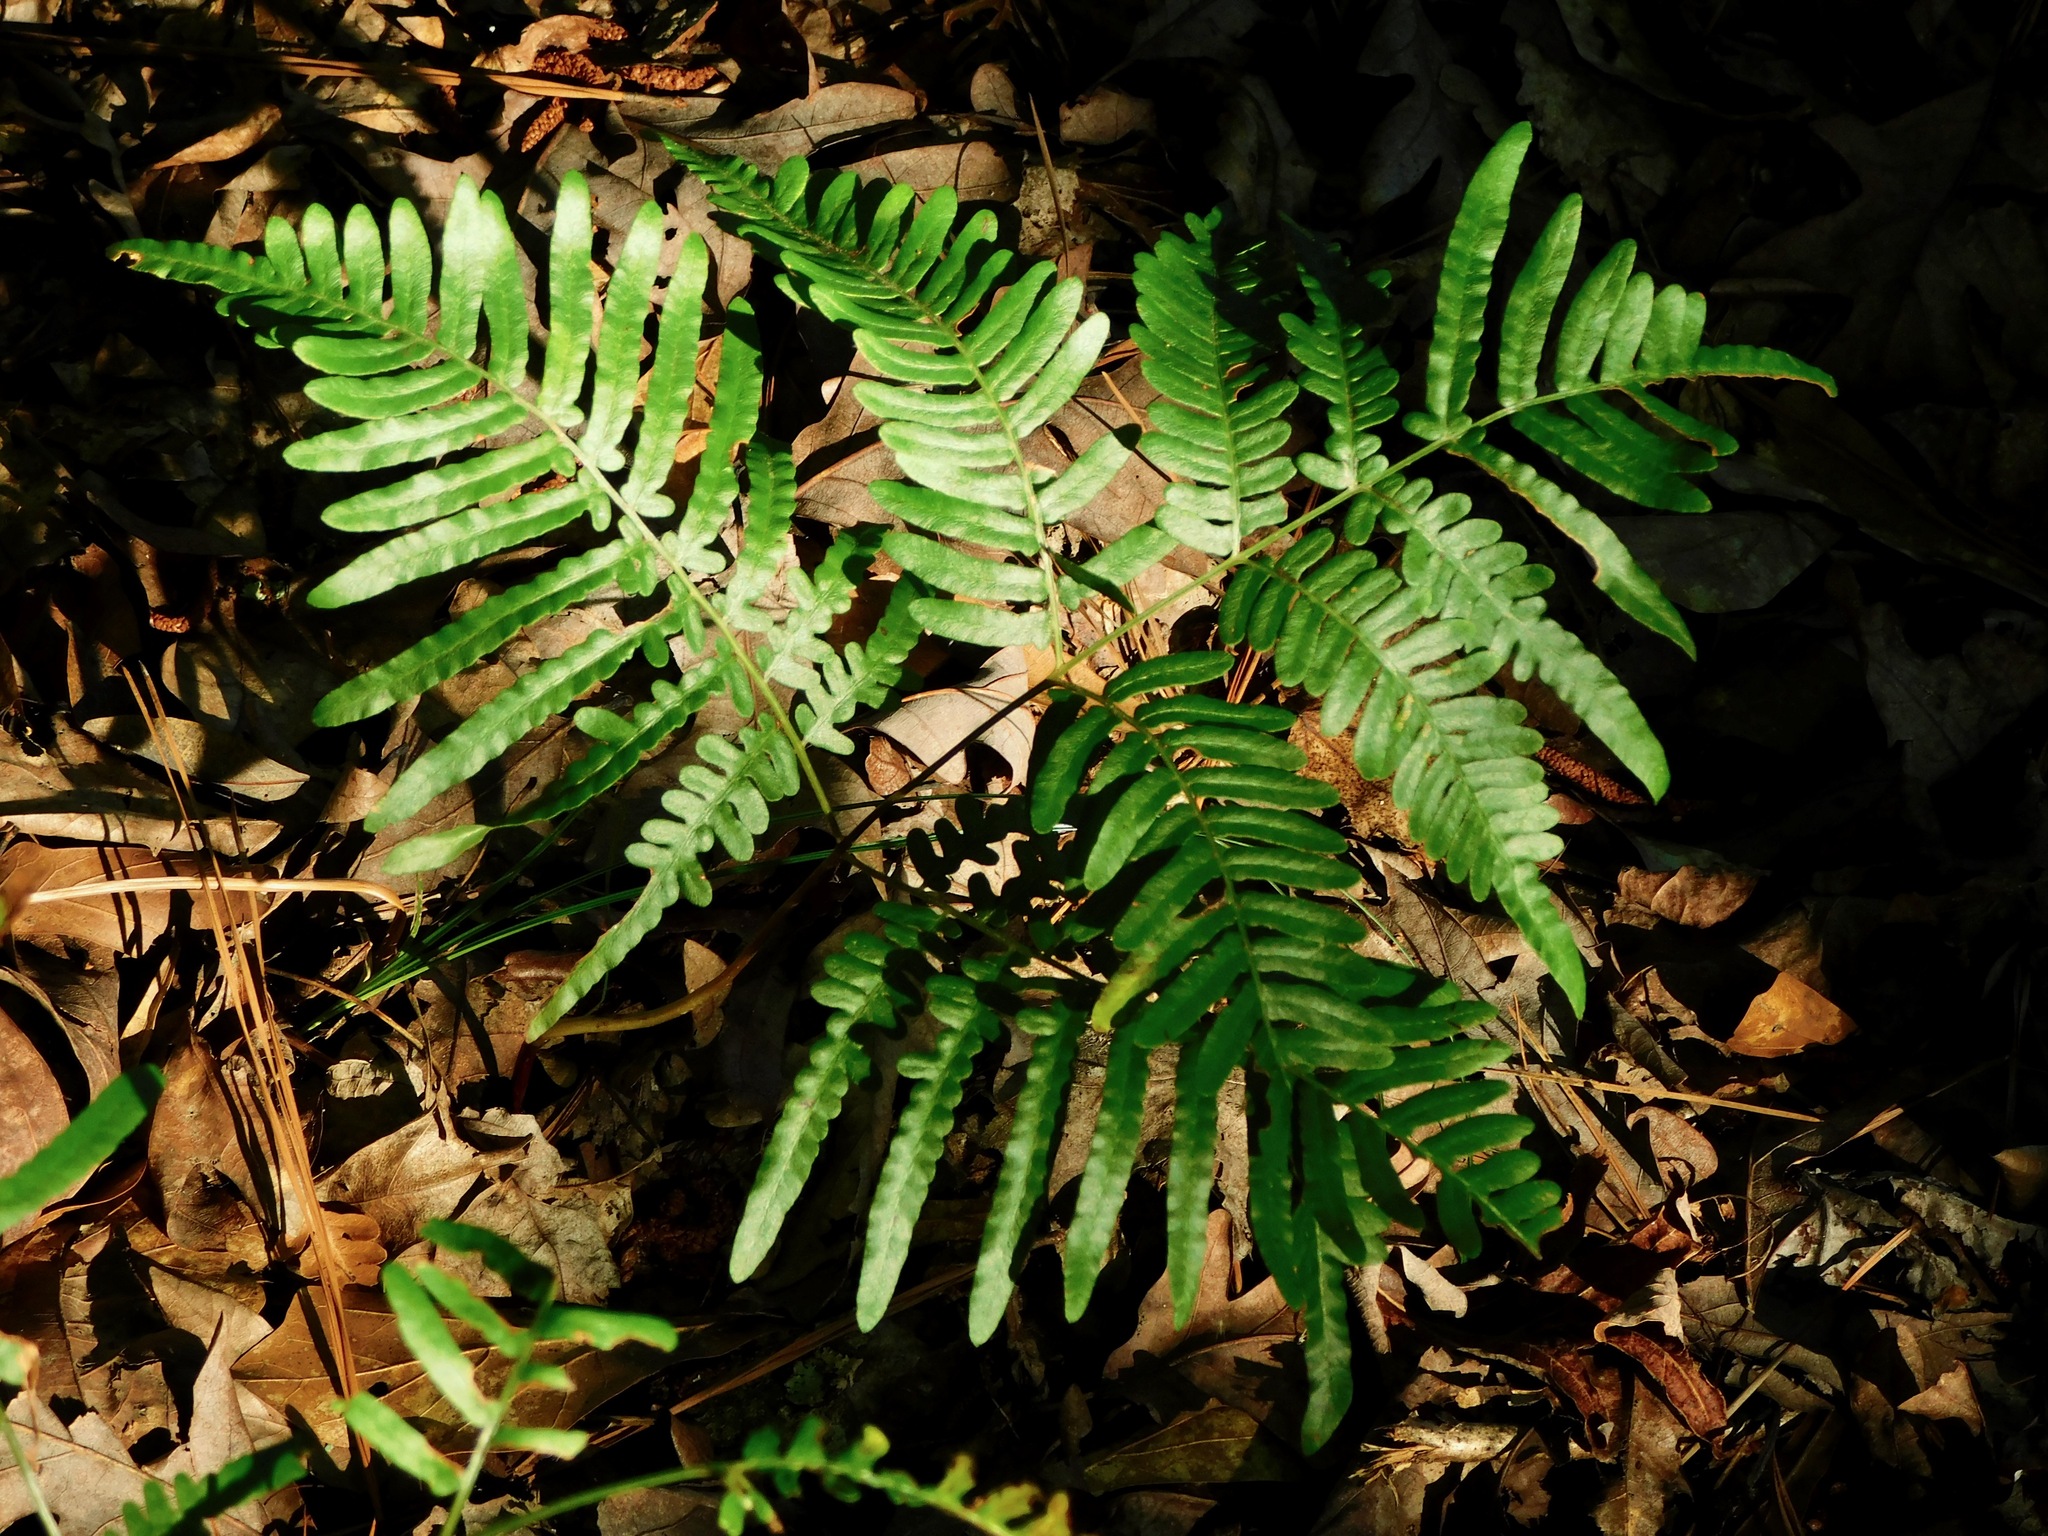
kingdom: Plantae
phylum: Tracheophyta
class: Polypodiopsida
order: Polypodiales
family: Dennstaedtiaceae
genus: Pteridium
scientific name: Pteridium
